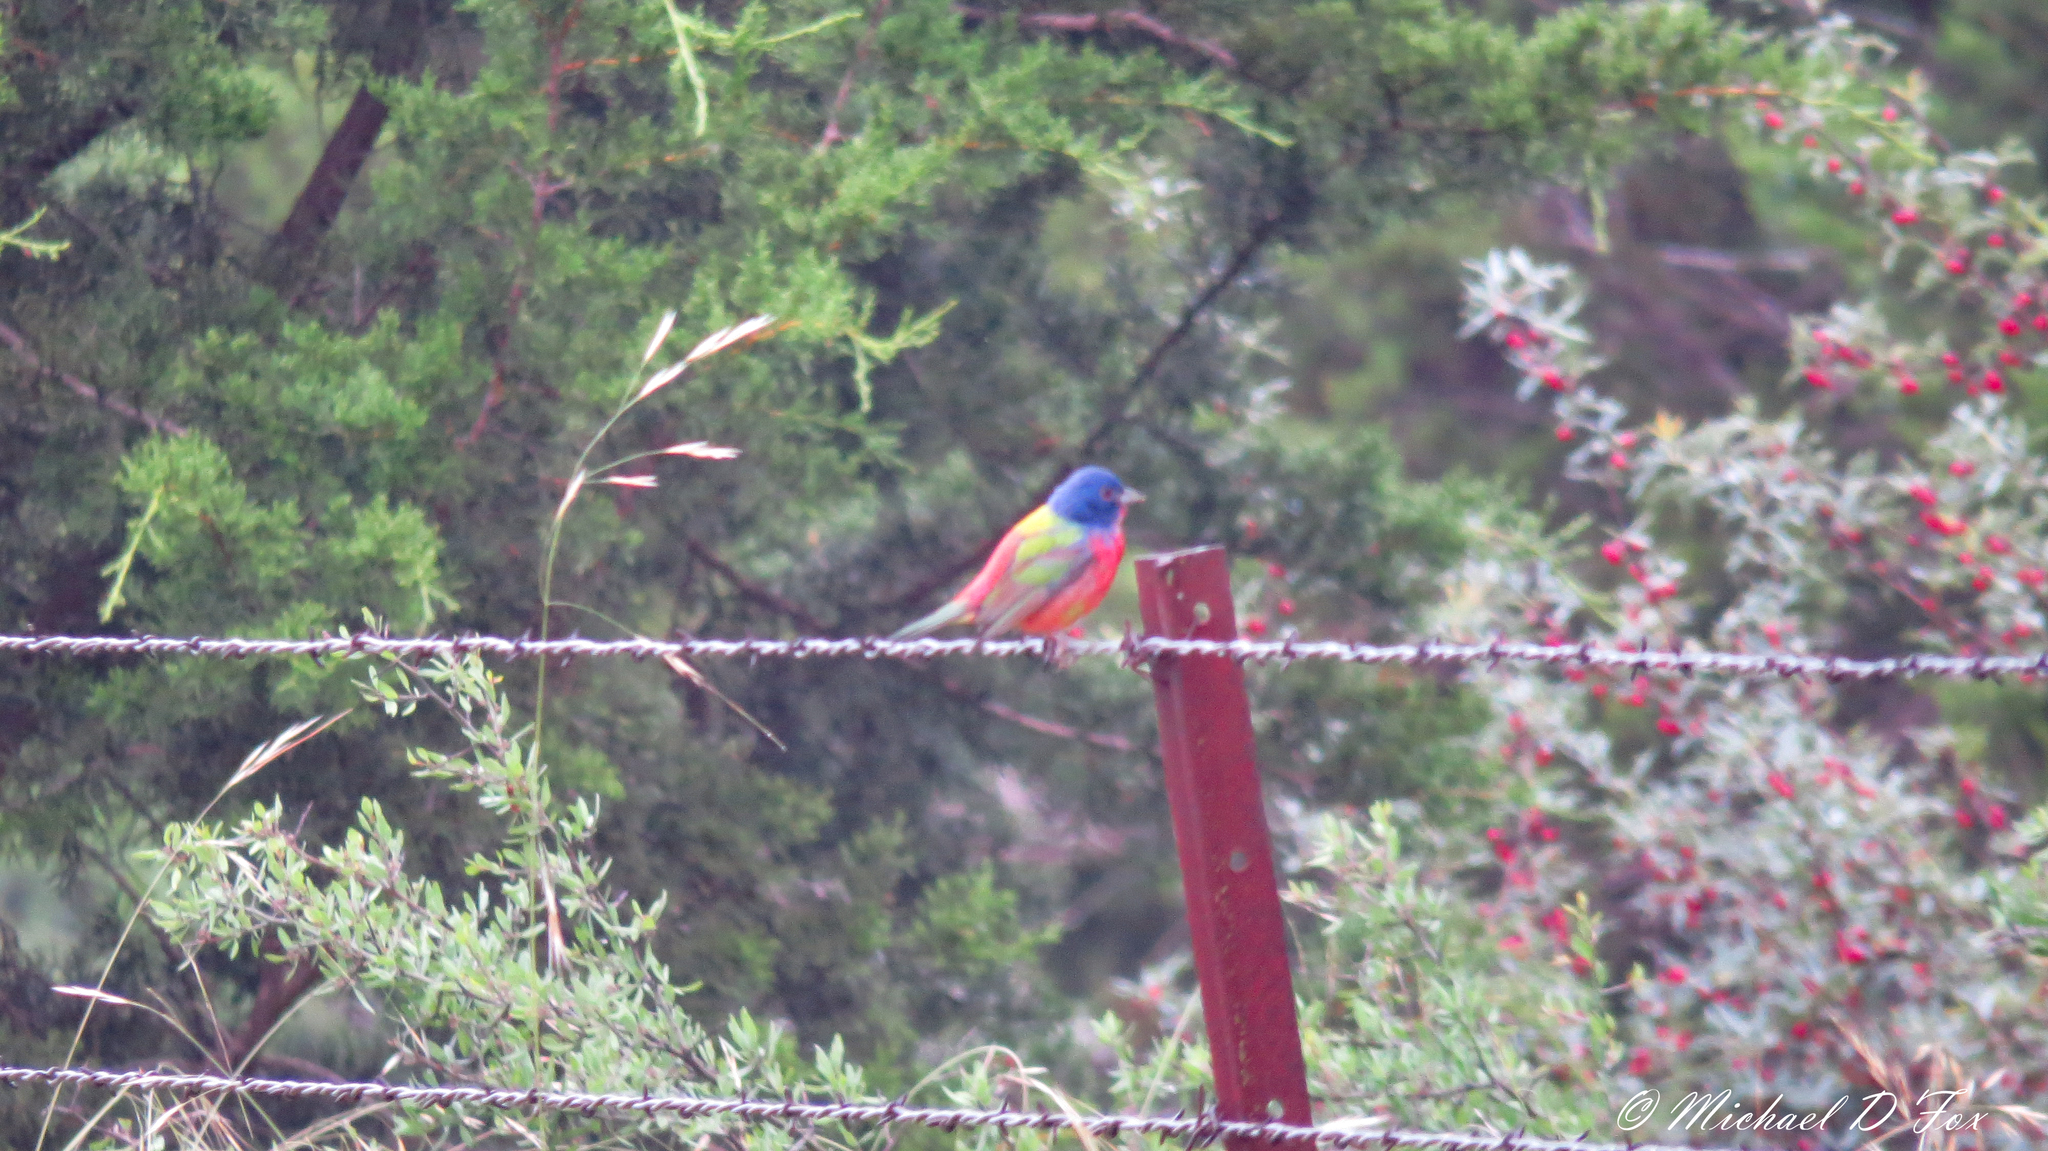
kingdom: Animalia
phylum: Chordata
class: Aves
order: Passeriformes
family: Cardinalidae
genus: Passerina
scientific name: Passerina ciris
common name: Painted bunting
